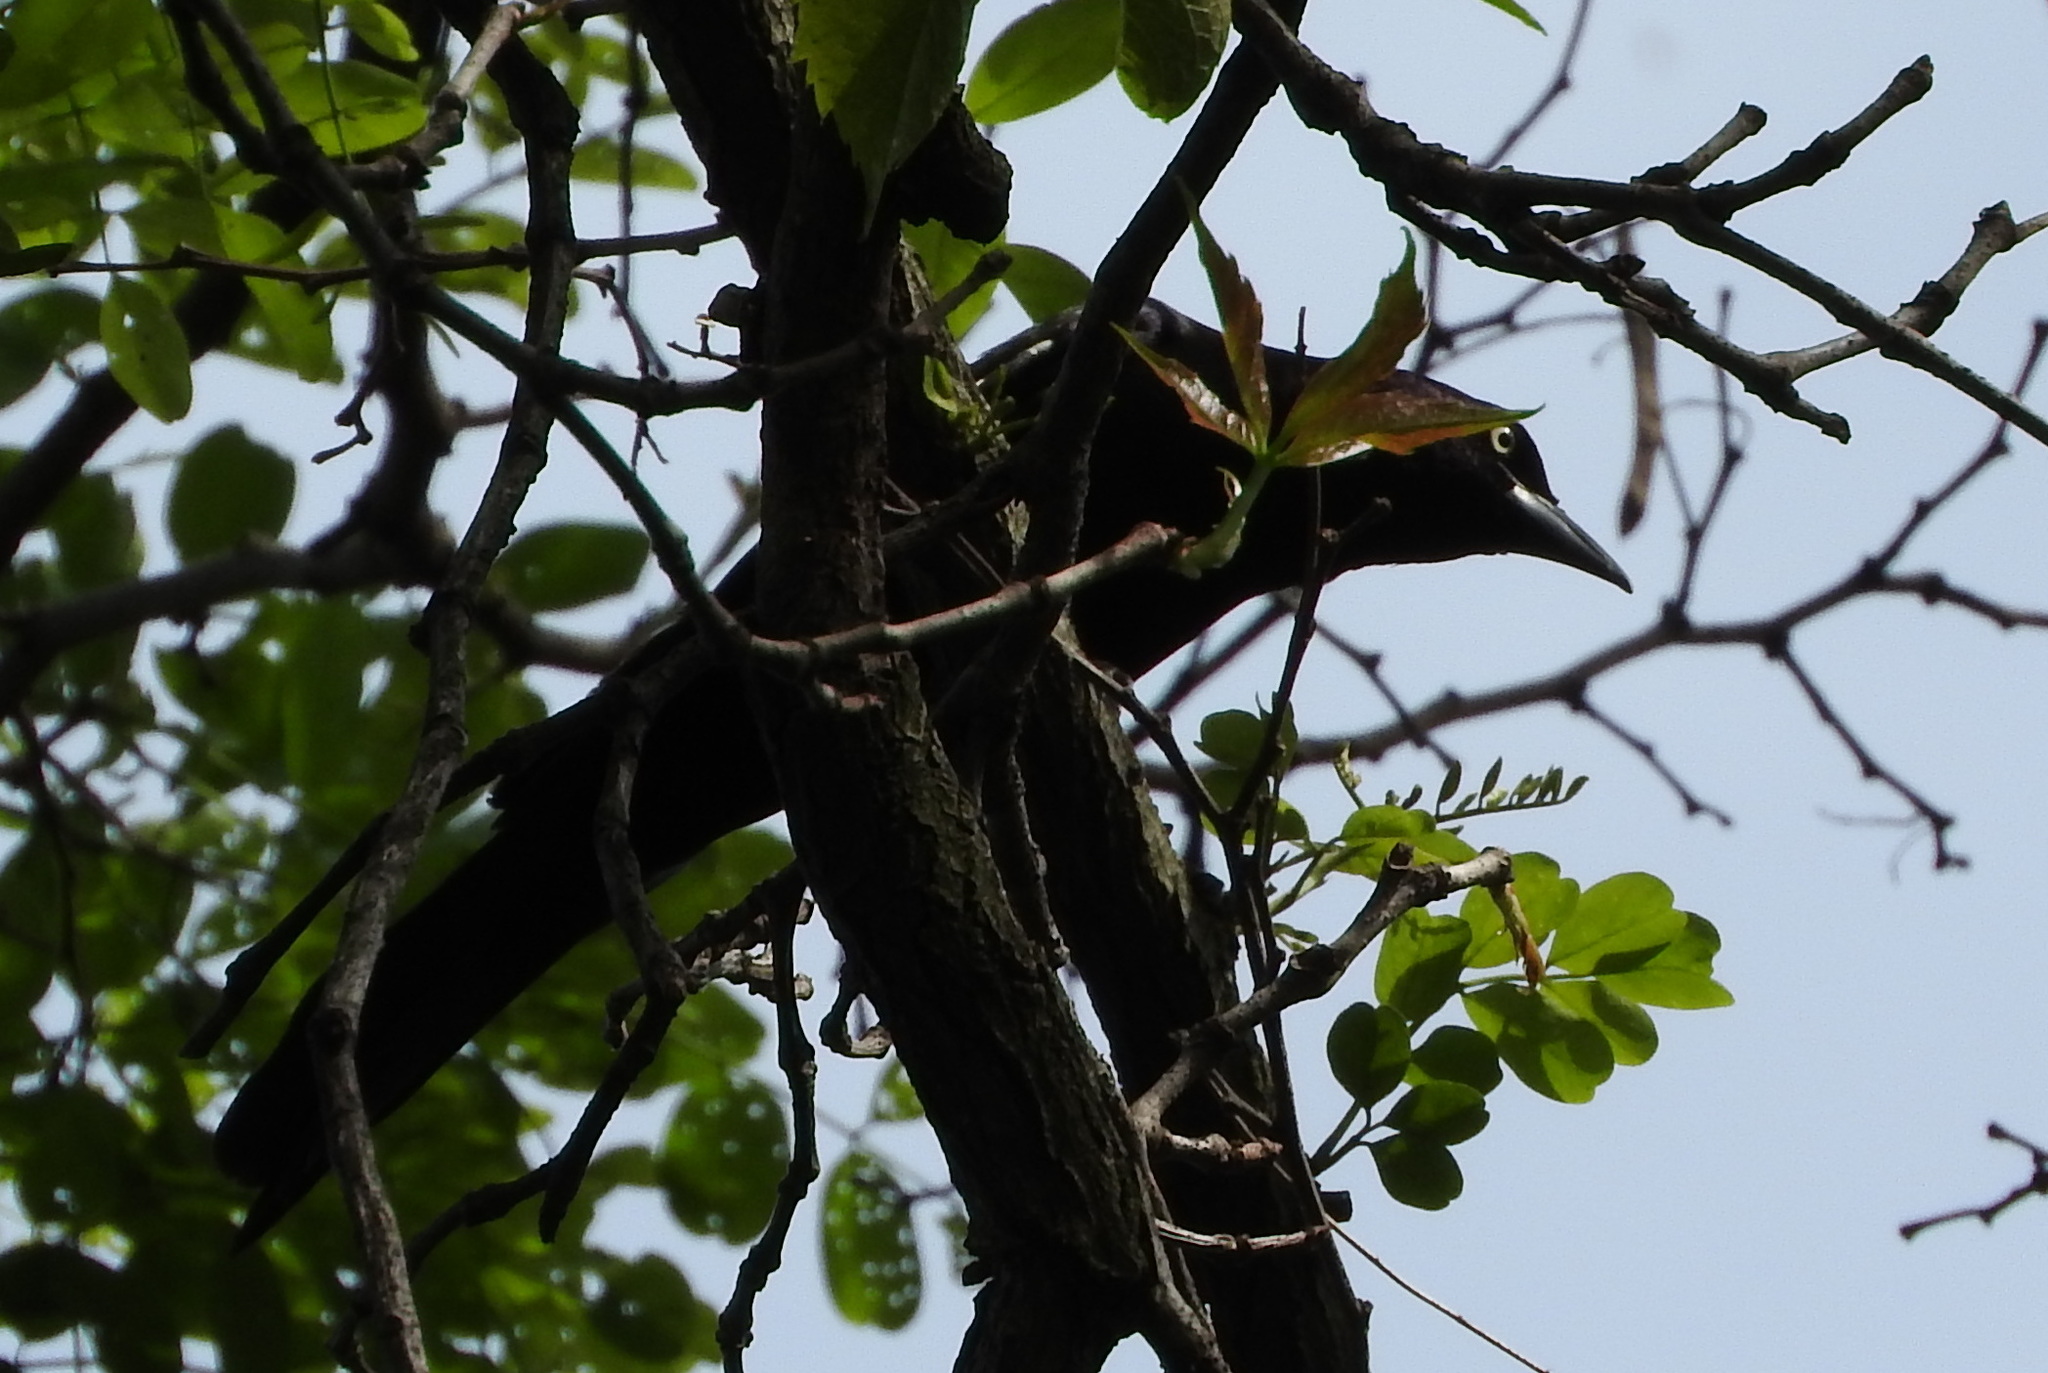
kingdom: Animalia
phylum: Chordata
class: Aves
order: Passeriformes
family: Icteridae
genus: Quiscalus
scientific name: Quiscalus quiscula
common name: Common grackle
